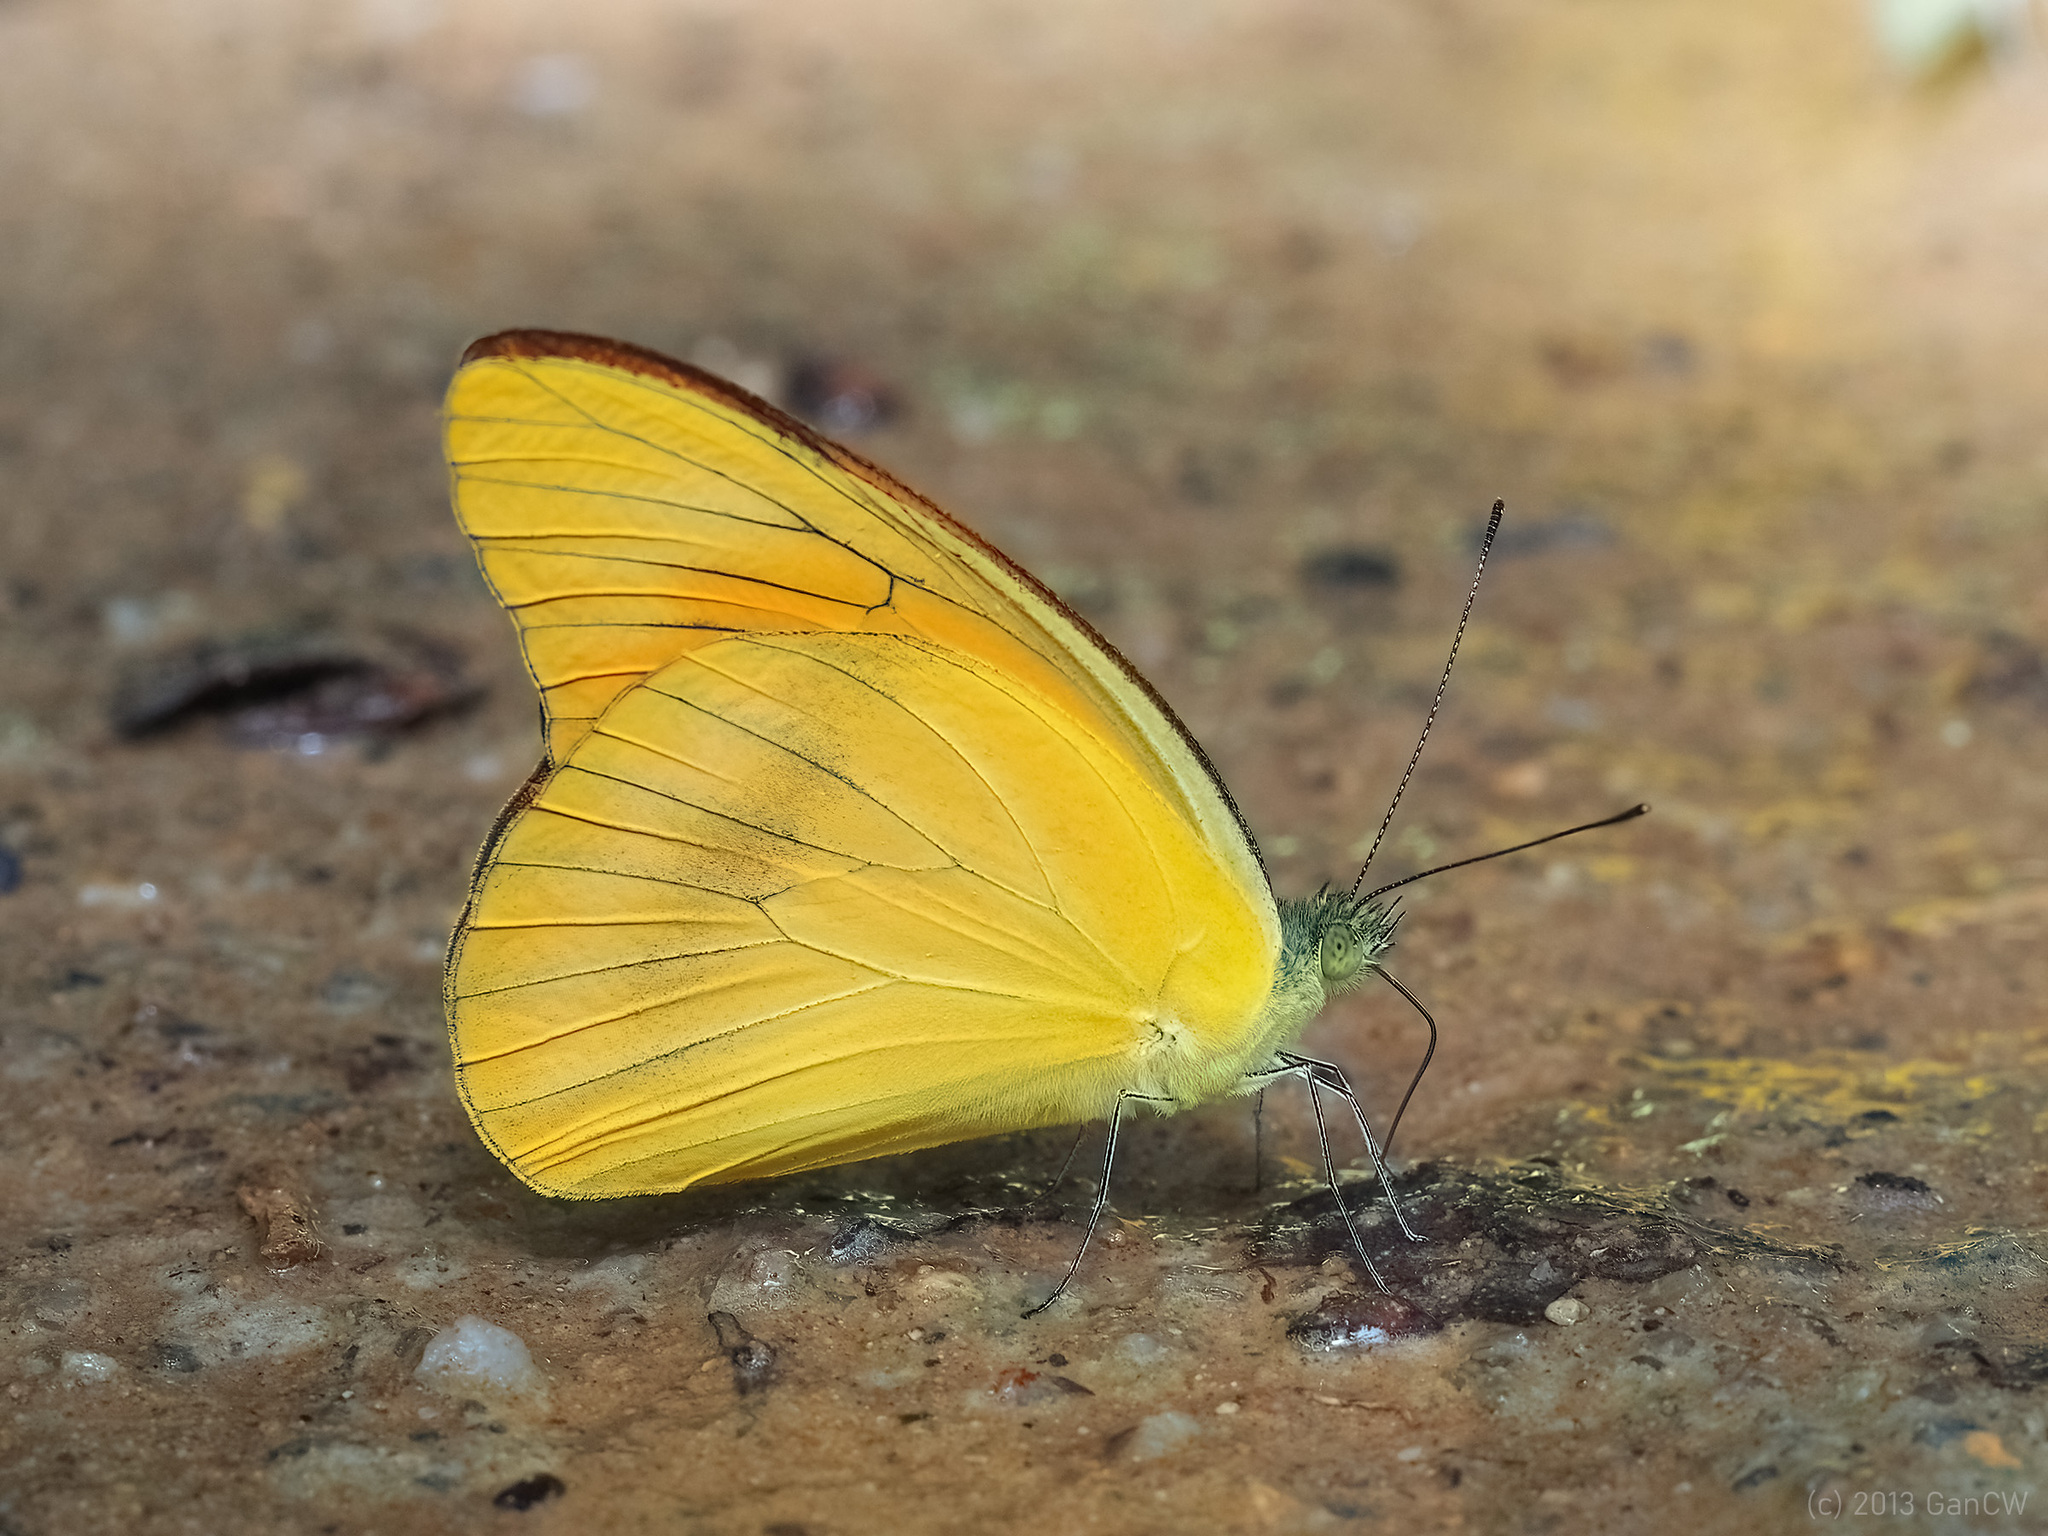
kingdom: Animalia
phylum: Arthropoda
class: Insecta
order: Lepidoptera
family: Pieridae
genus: Appias
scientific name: Appias nero
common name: Orange albatross
